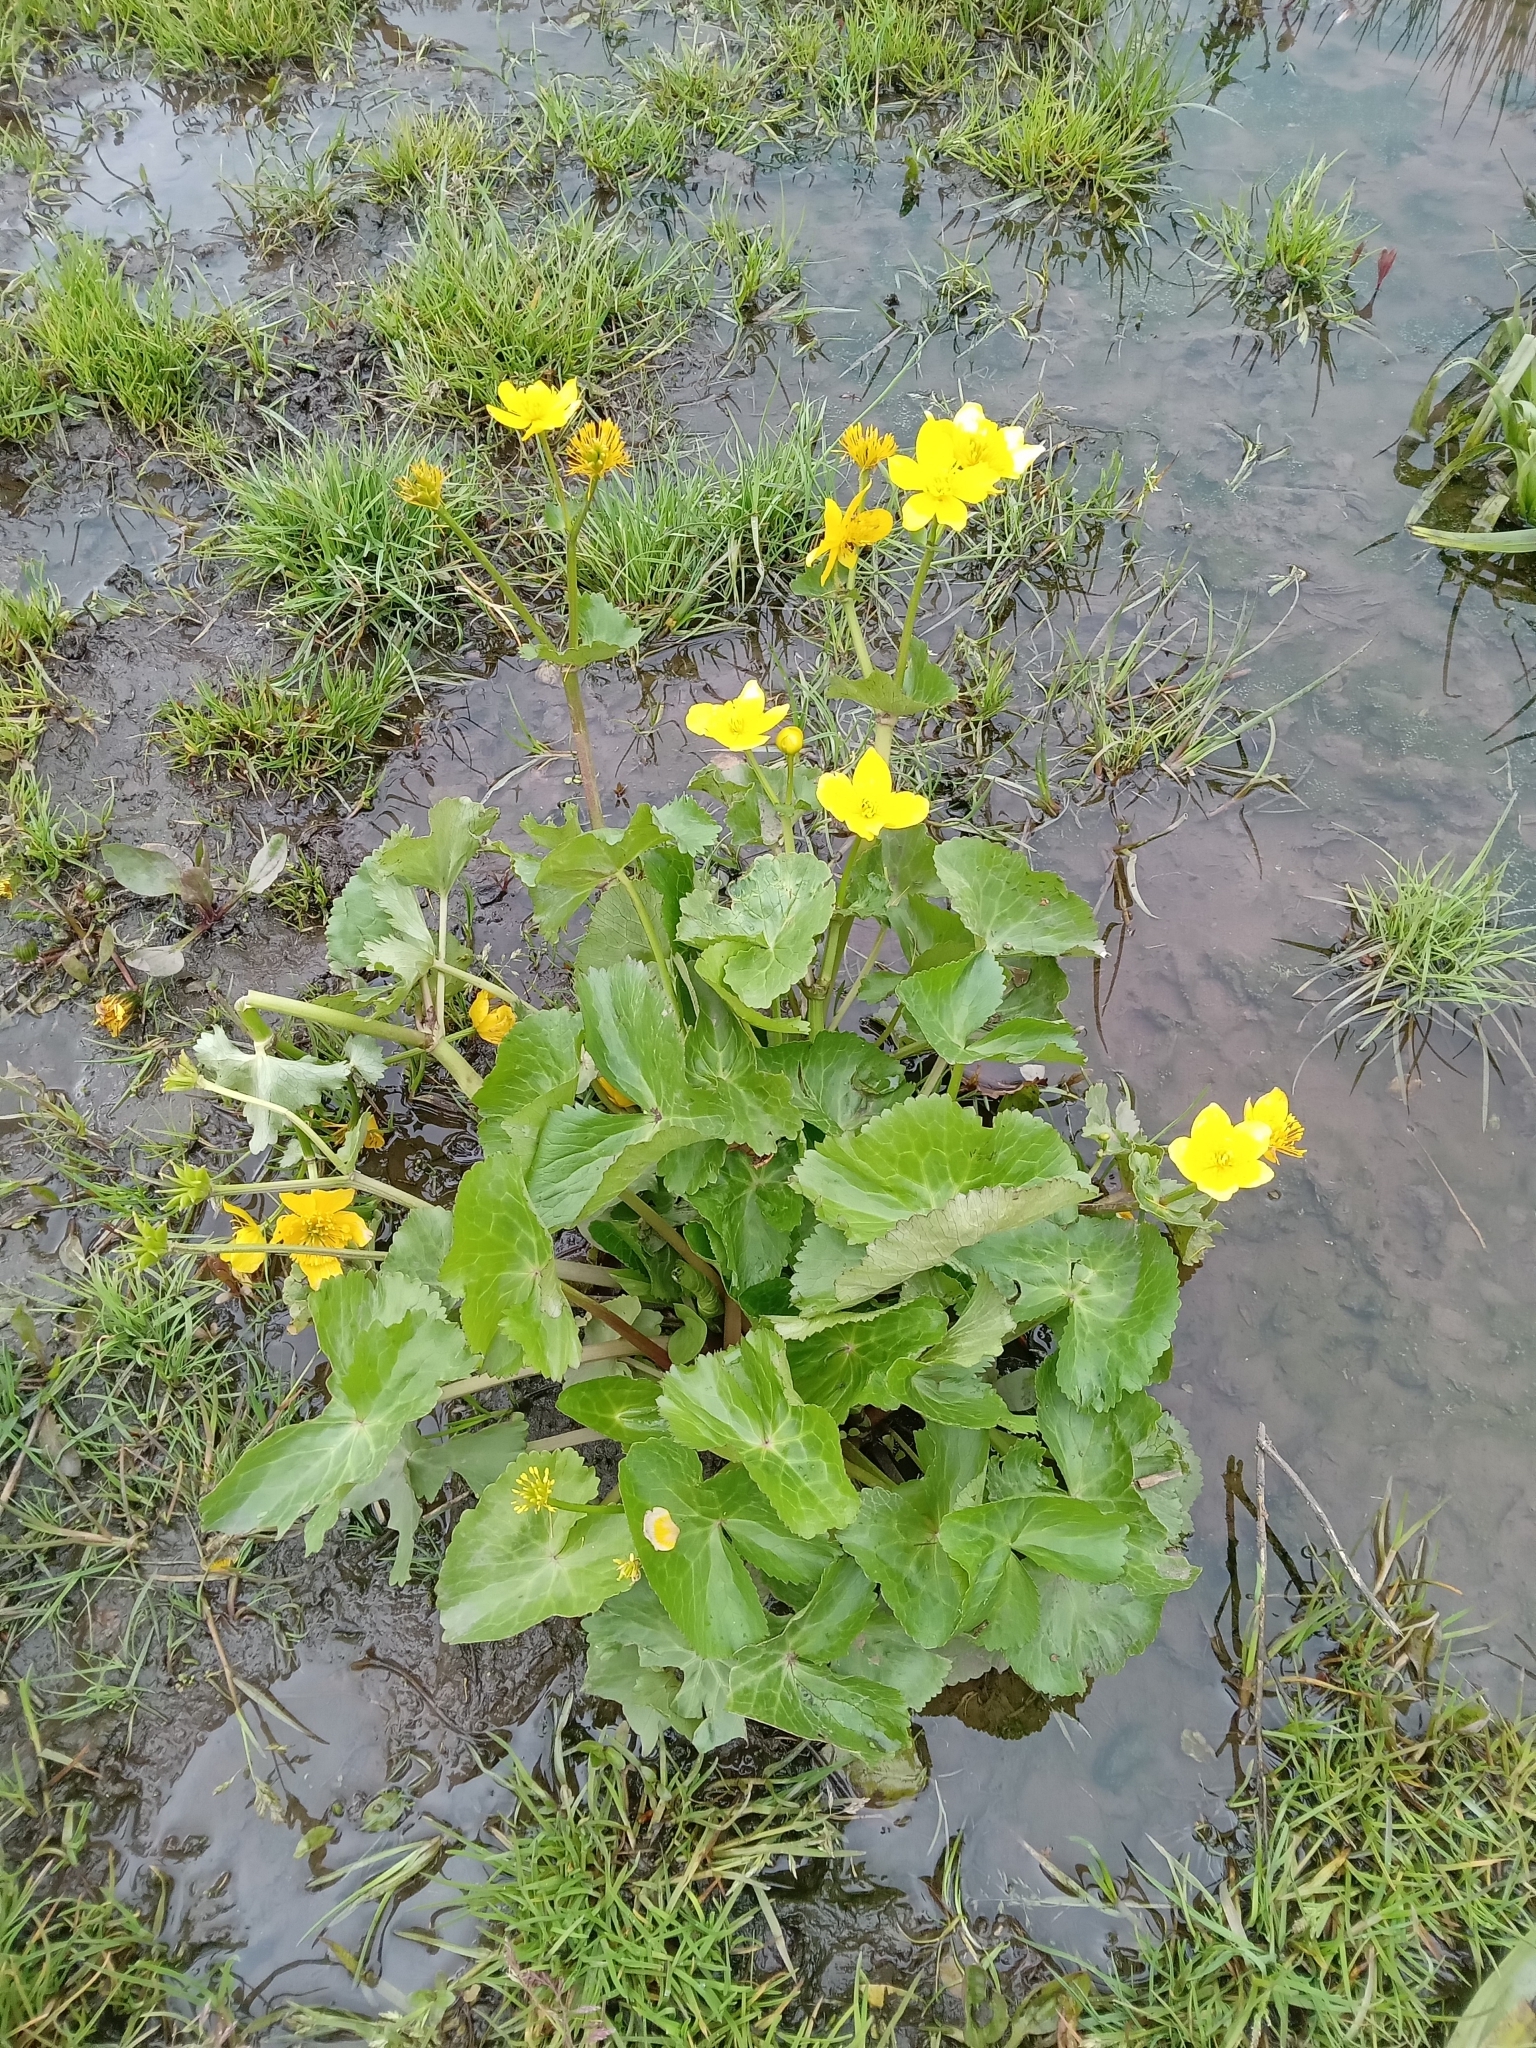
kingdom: Plantae
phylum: Tracheophyta
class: Magnoliopsida
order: Ranunculales
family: Ranunculaceae
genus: Caltha
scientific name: Caltha palustris
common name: Marsh marigold
